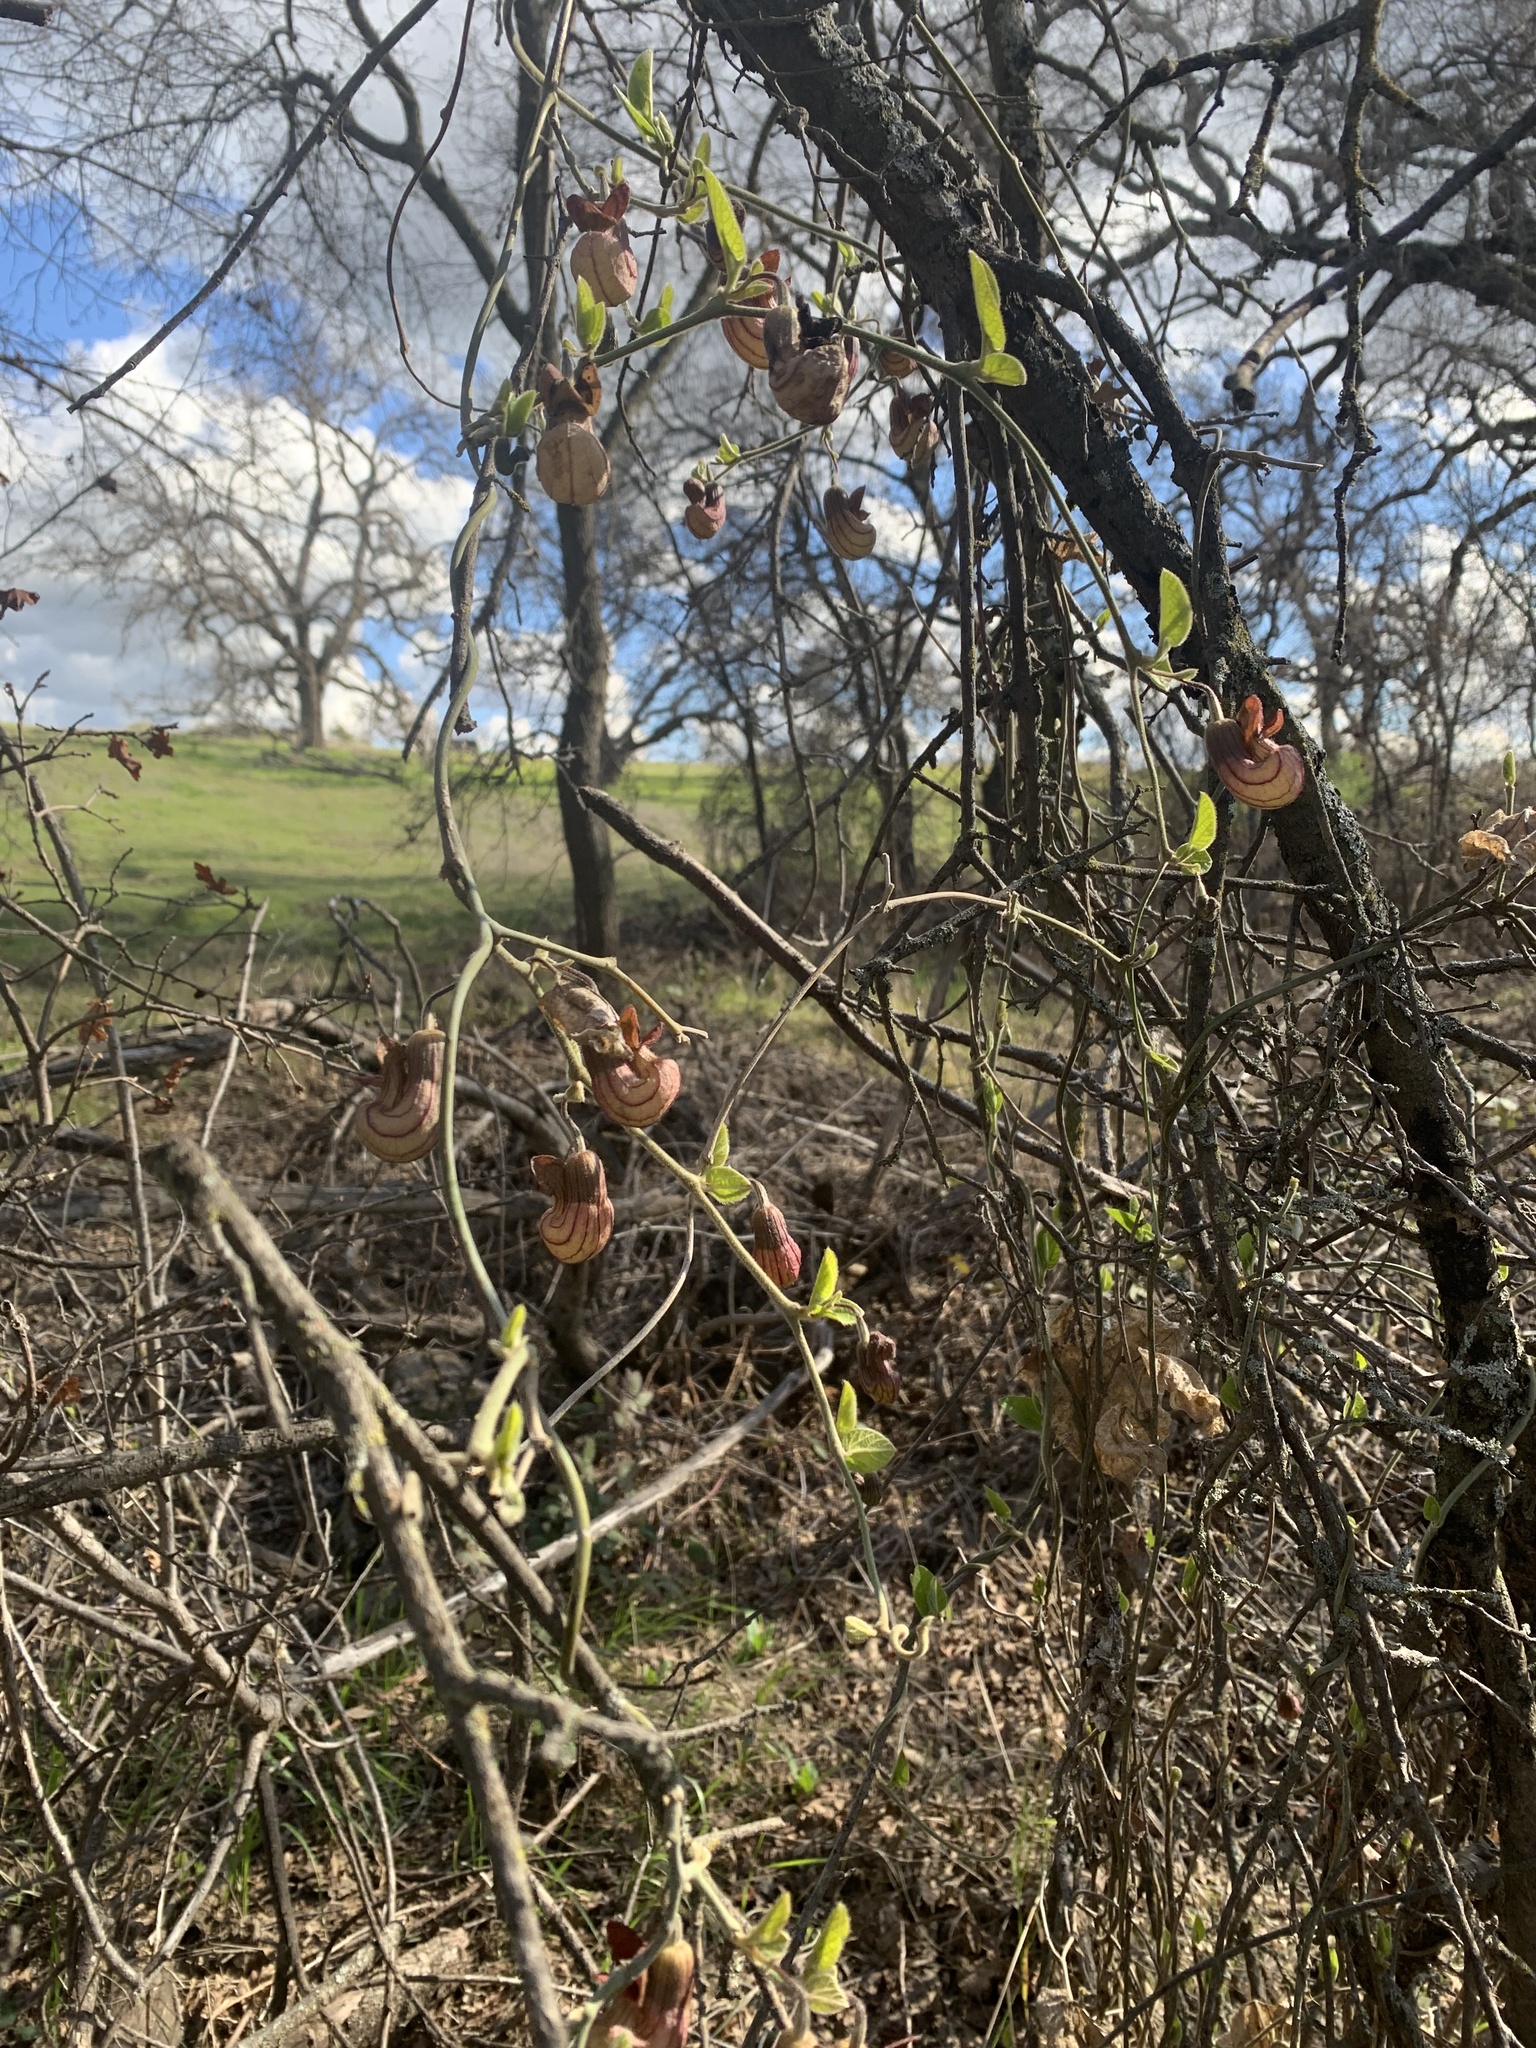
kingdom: Plantae
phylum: Tracheophyta
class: Magnoliopsida
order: Piperales
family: Aristolochiaceae
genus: Isotrema
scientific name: Isotrema californicum
